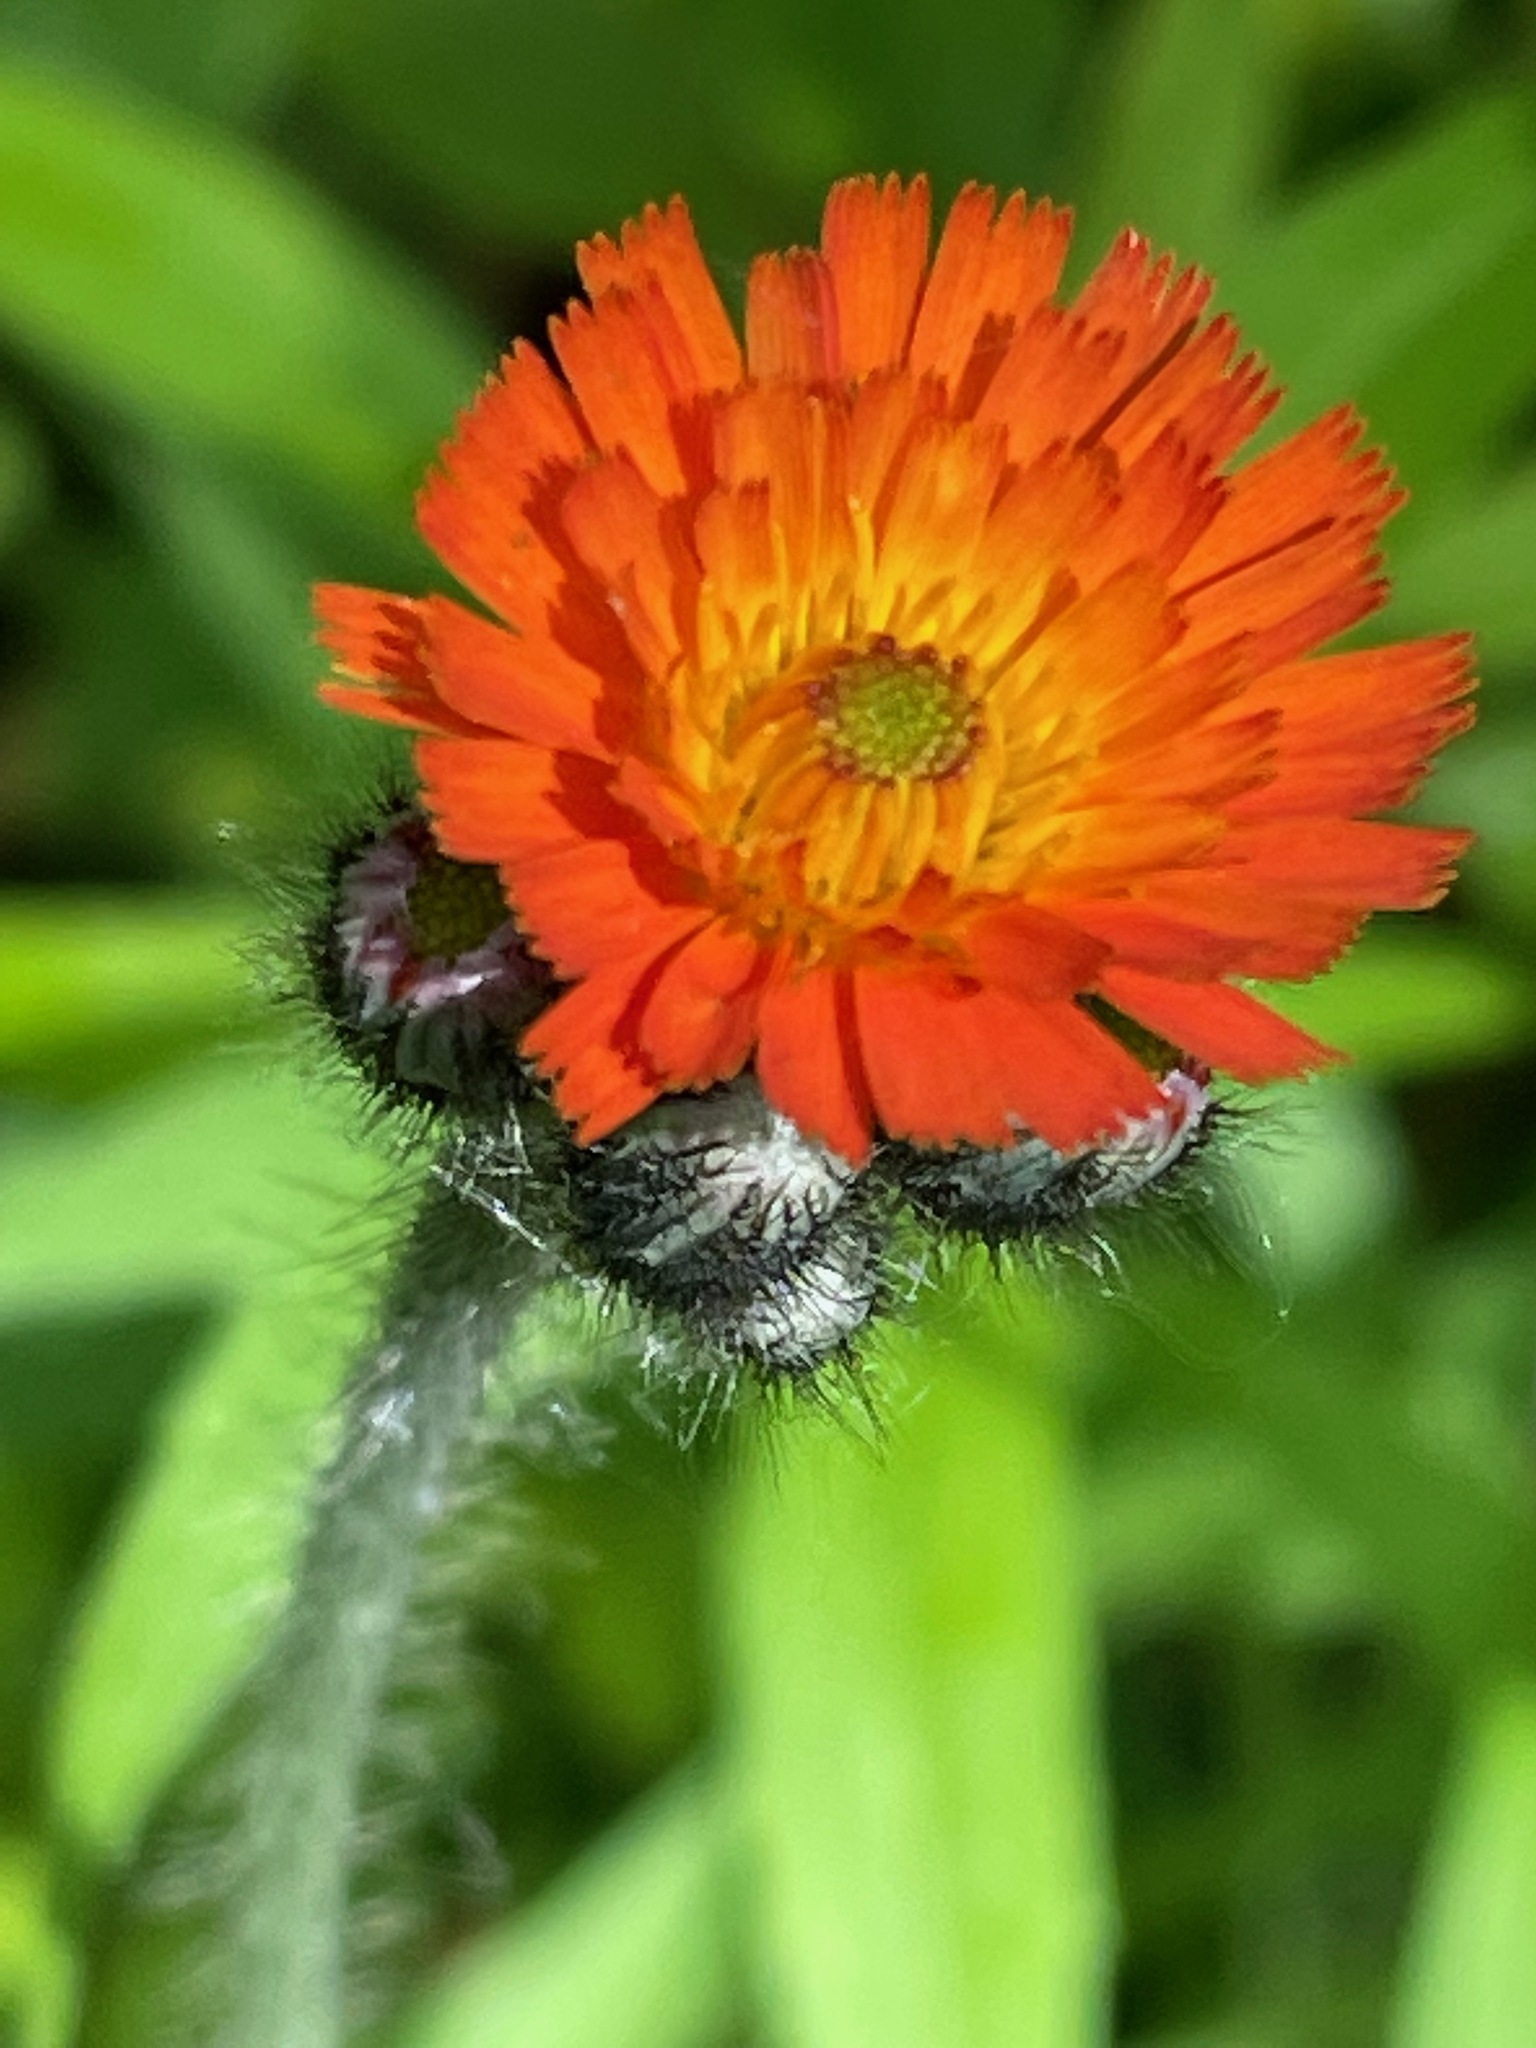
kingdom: Plantae
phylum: Tracheophyta
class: Magnoliopsida
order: Asterales
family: Asteraceae
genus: Pilosella
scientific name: Pilosella aurantiaca
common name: Fox-and-cubs
